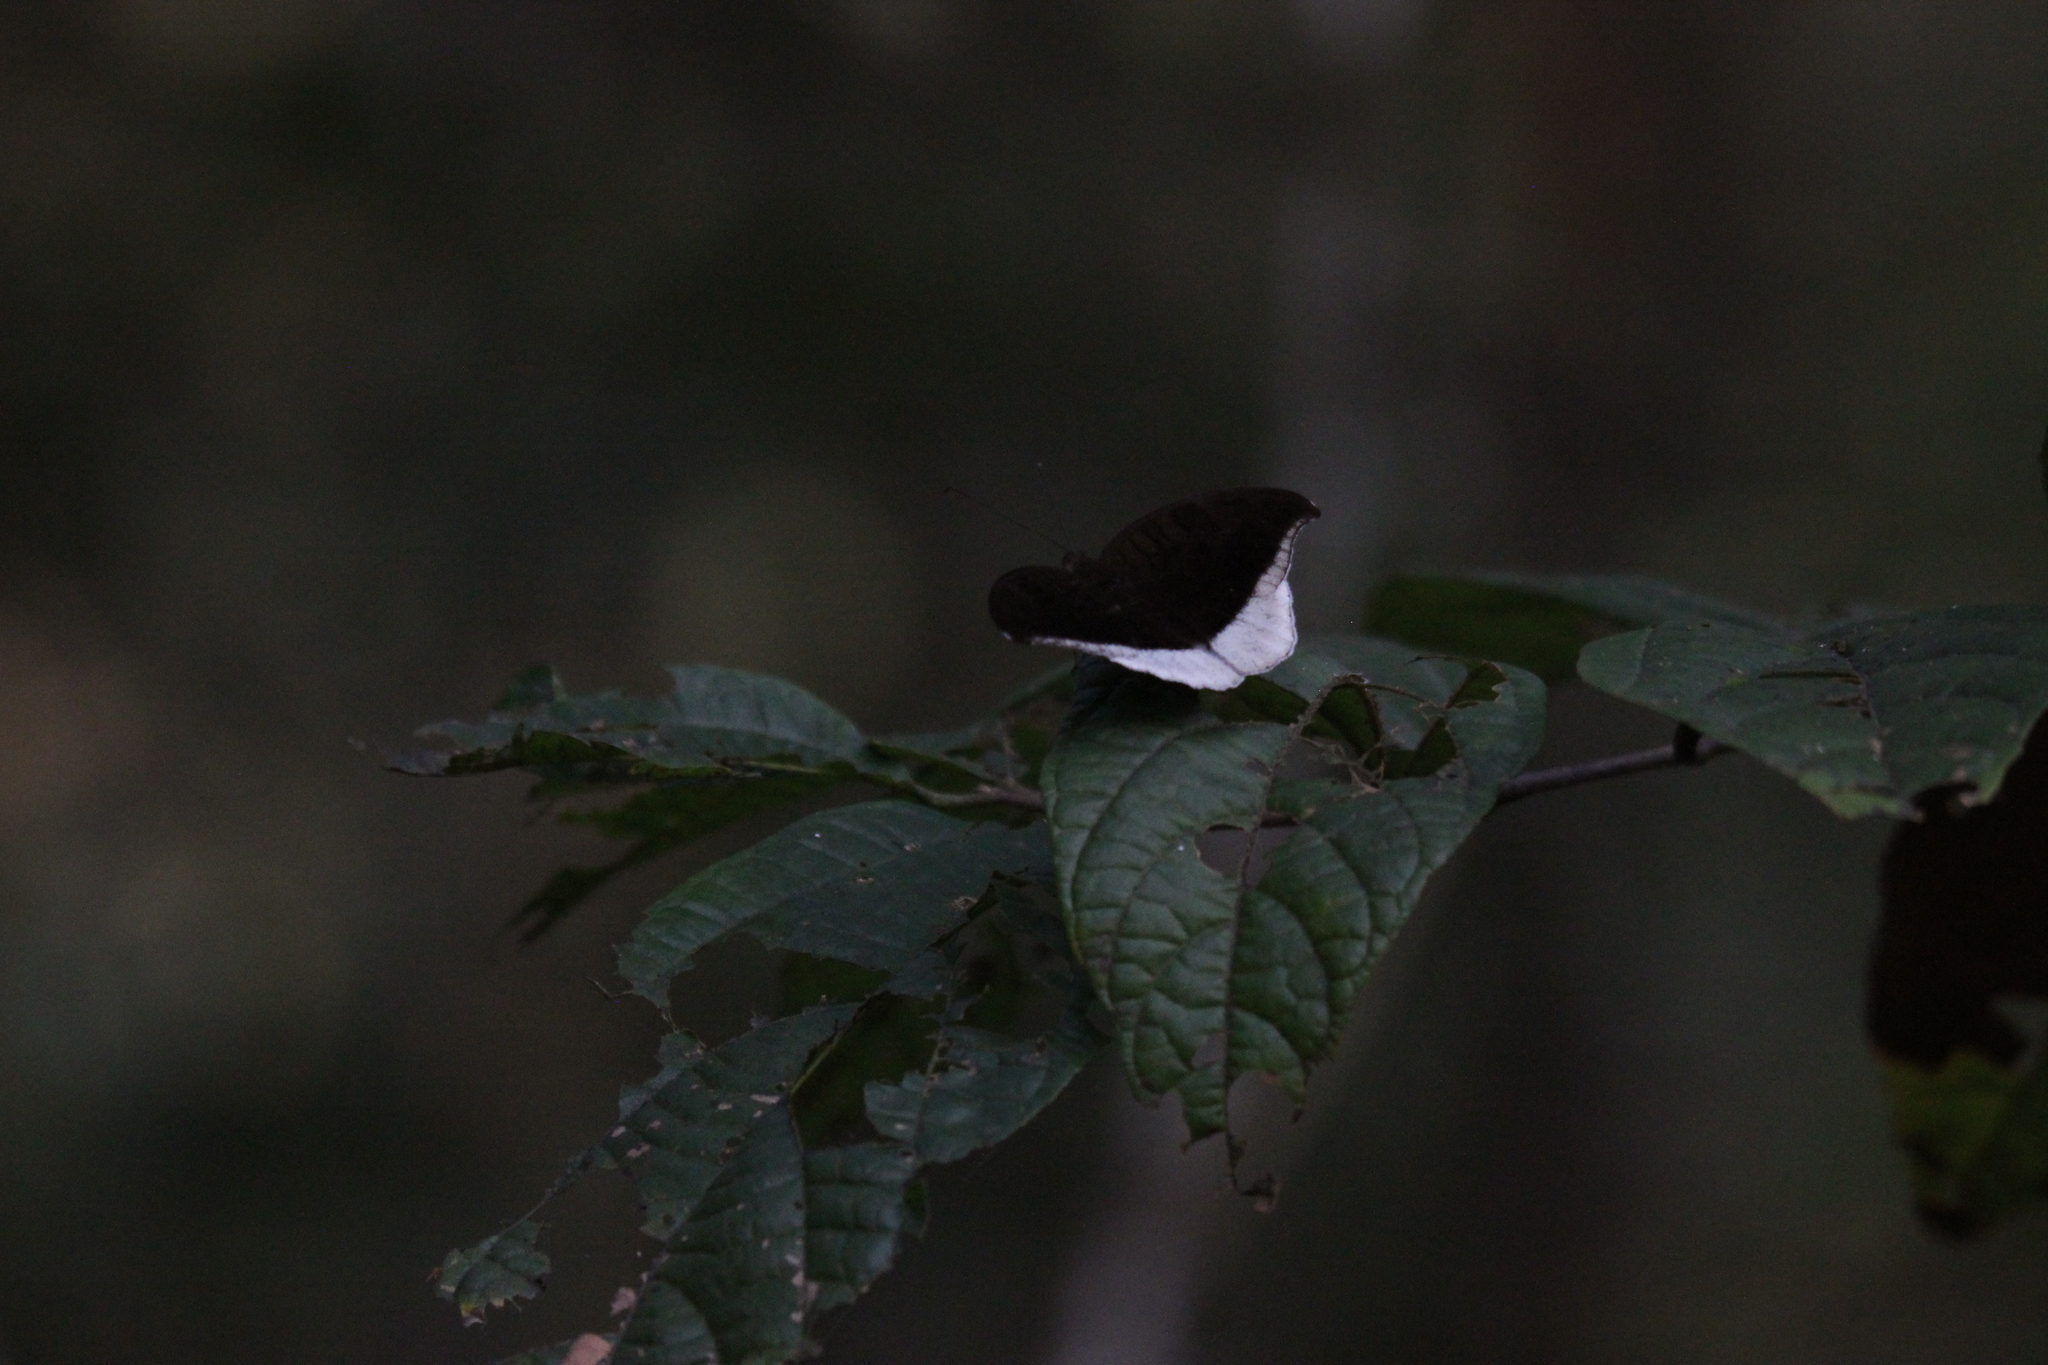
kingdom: Animalia
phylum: Arthropoda
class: Insecta
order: Lepidoptera
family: Nymphalidae
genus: Tanaecia
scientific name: Tanaecia lepidea
